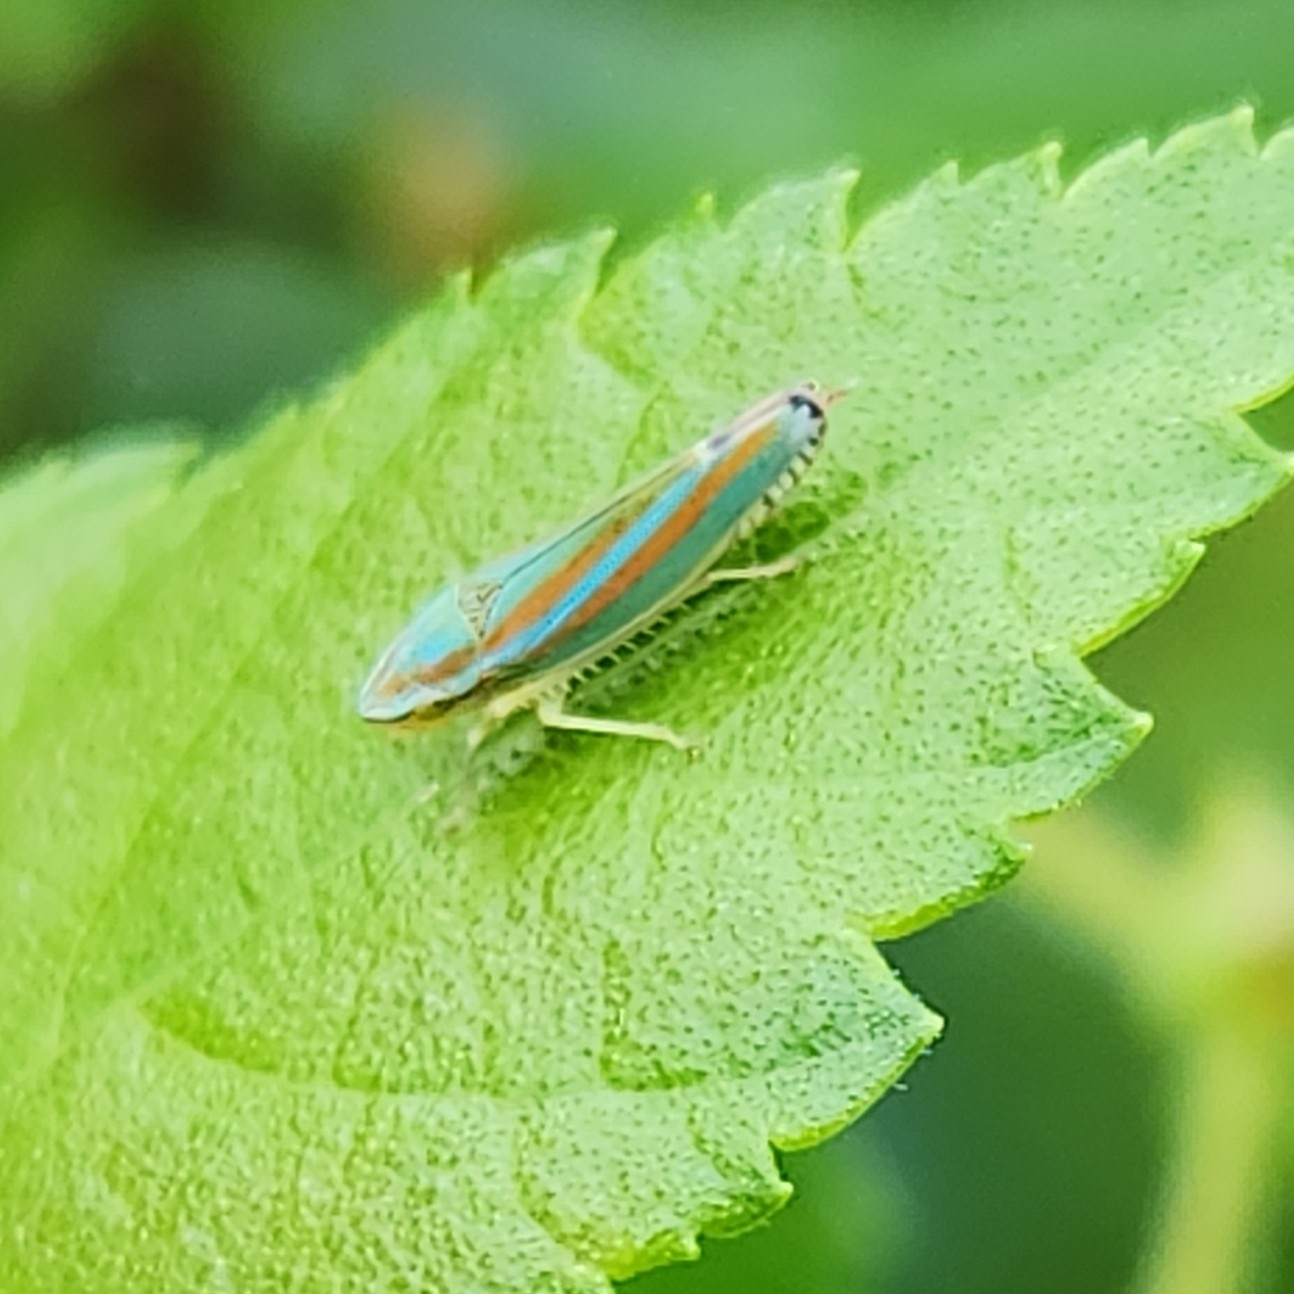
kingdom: Animalia
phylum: Arthropoda
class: Insecta
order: Hemiptera
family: Cicadellidae
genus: Graphocephala
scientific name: Graphocephala versuta
